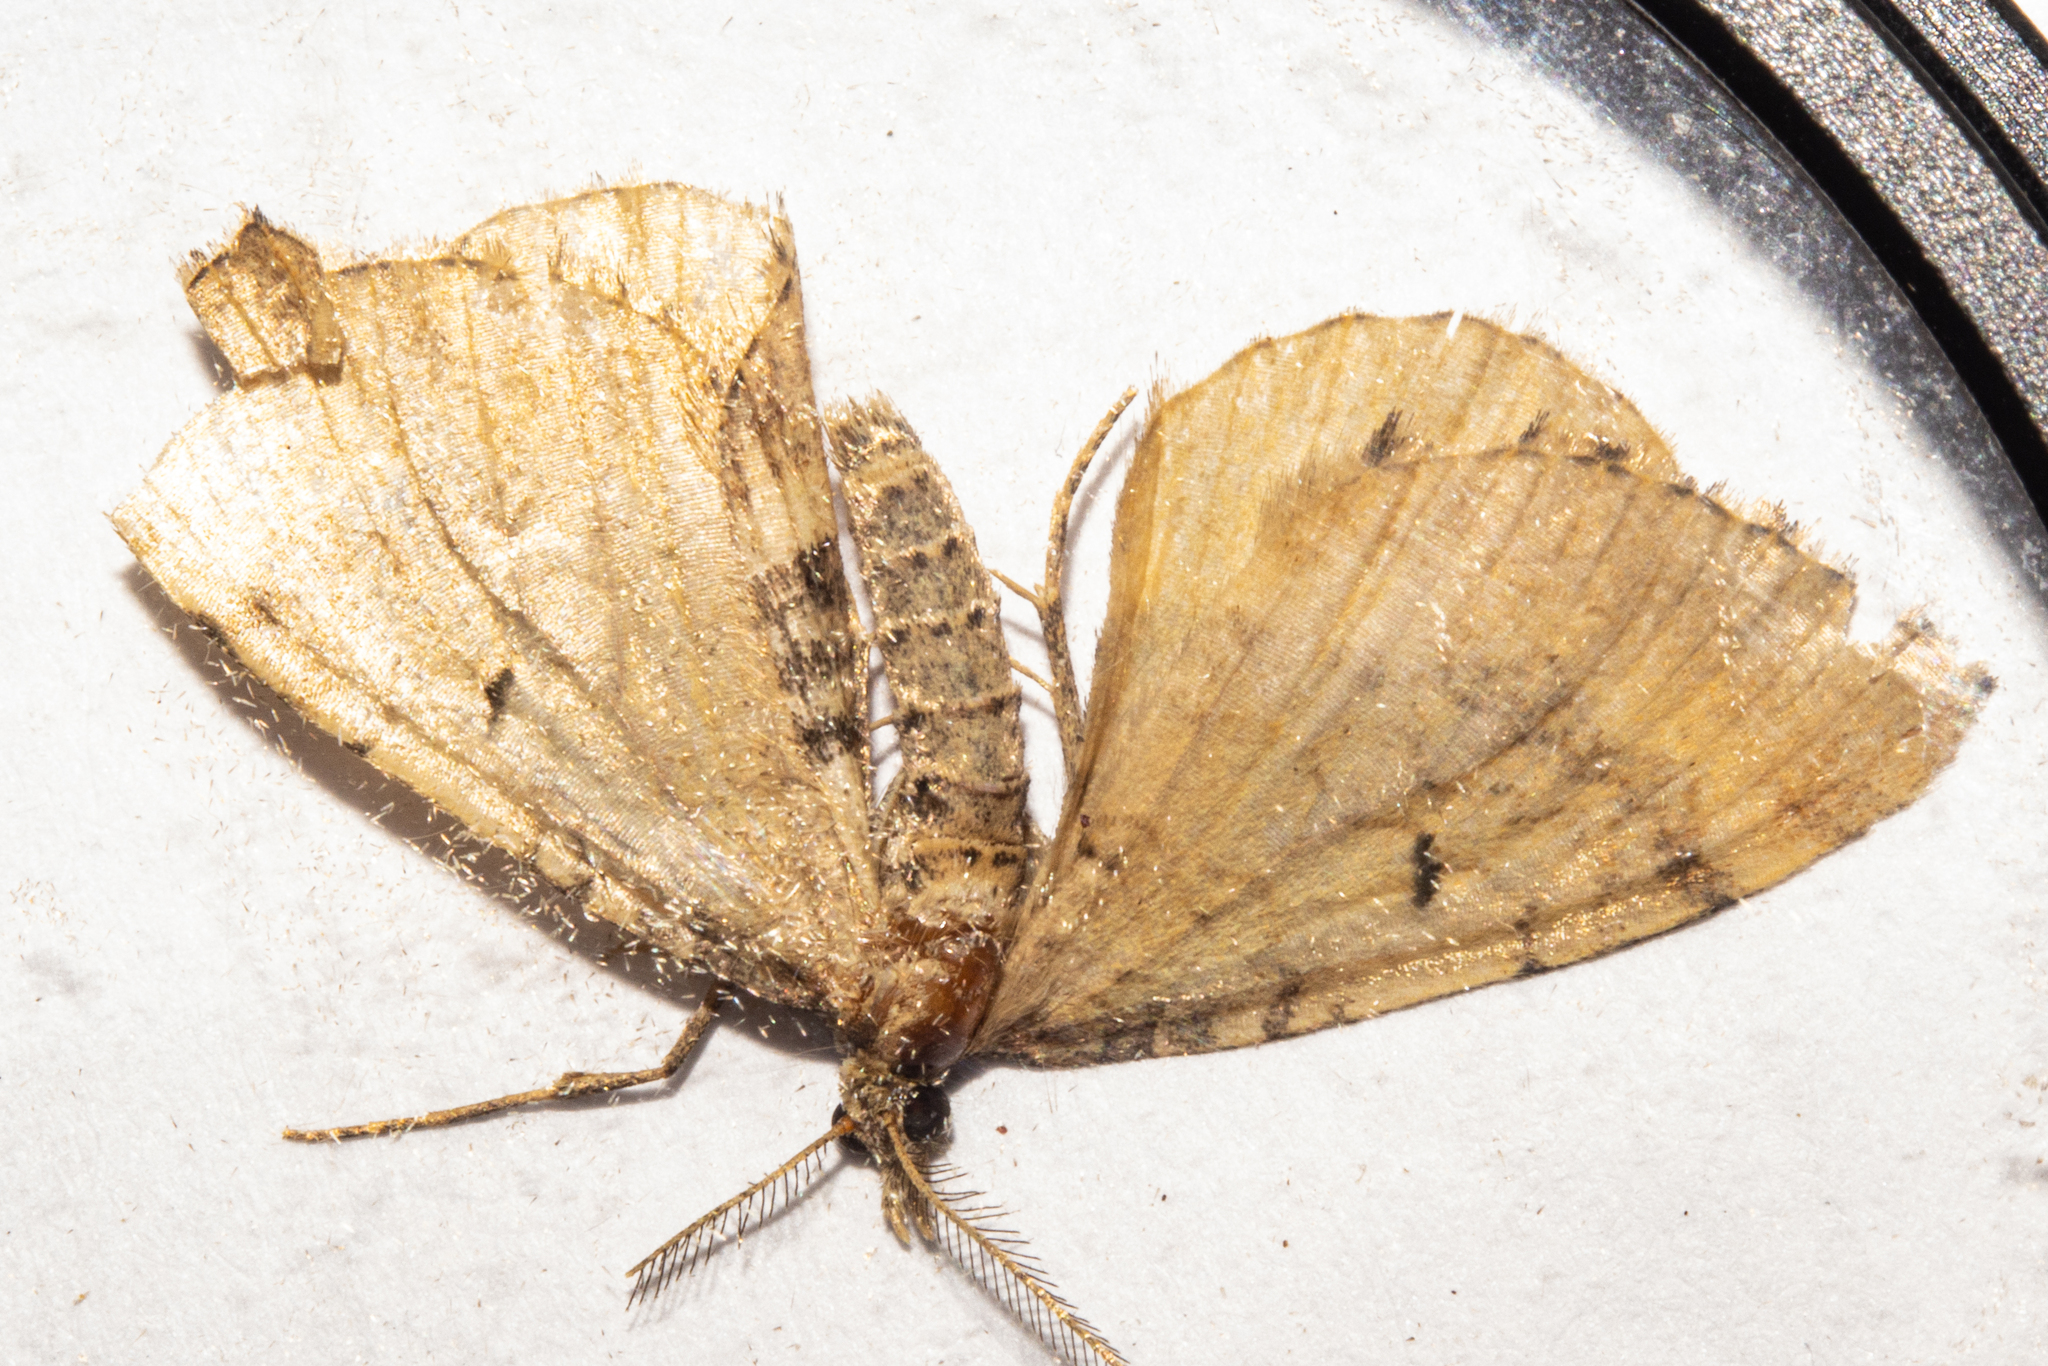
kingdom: Animalia
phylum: Arthropoda
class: Insecta
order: Lepidoptera
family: Geometridae
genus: Asaphodes
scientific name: Asaphodes aegrota
